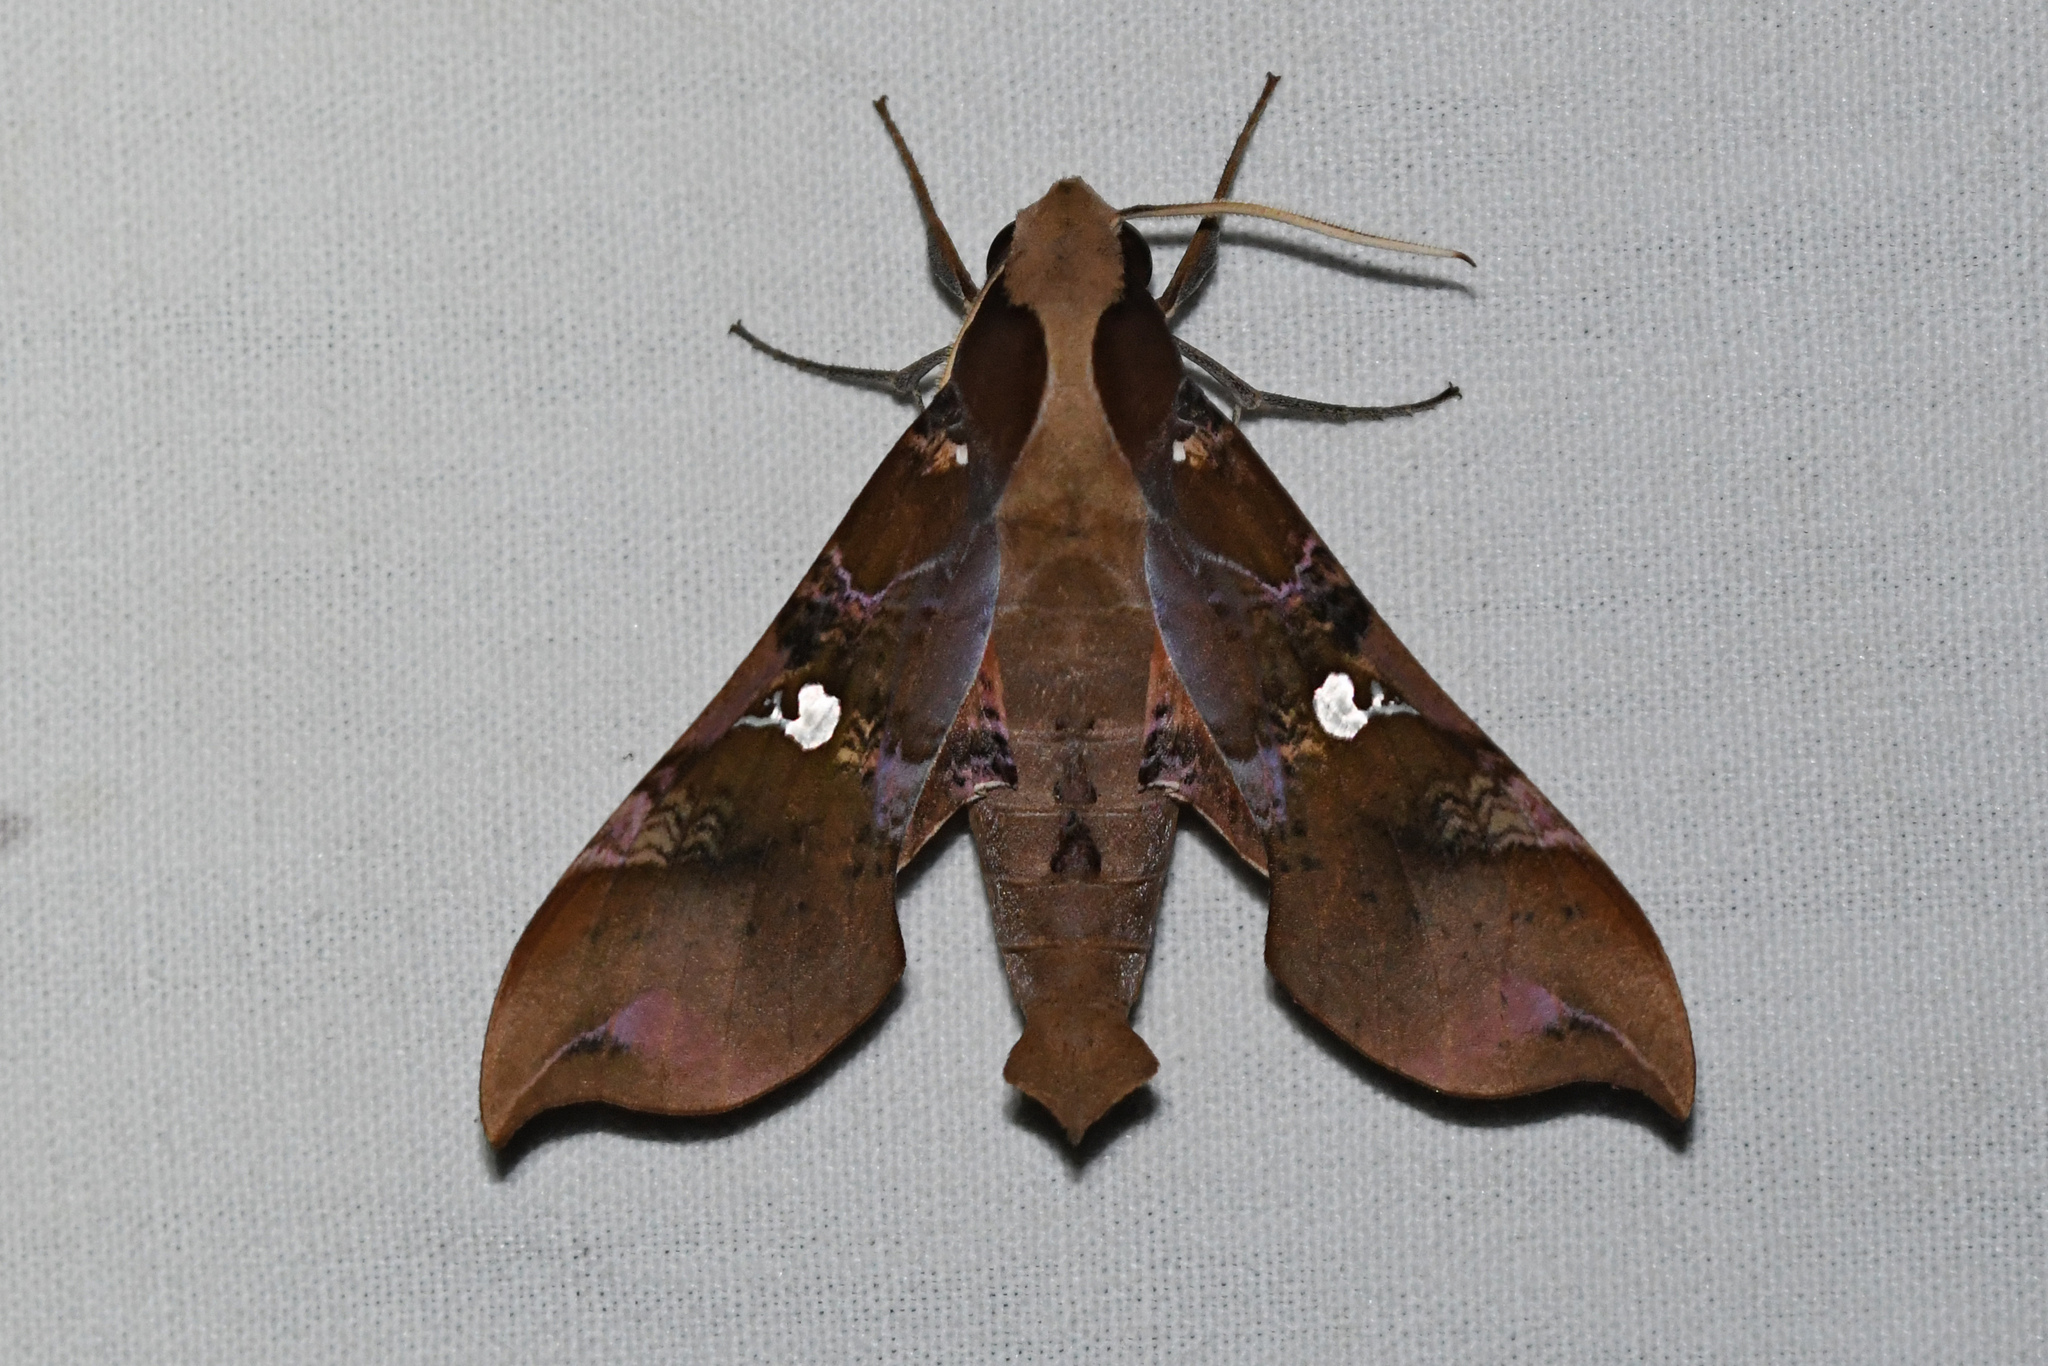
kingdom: Animalia
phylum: Arthropoda
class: Insecta
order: Lepidoptera
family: Sphingidae
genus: Callionima
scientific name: Callionima falcifera
